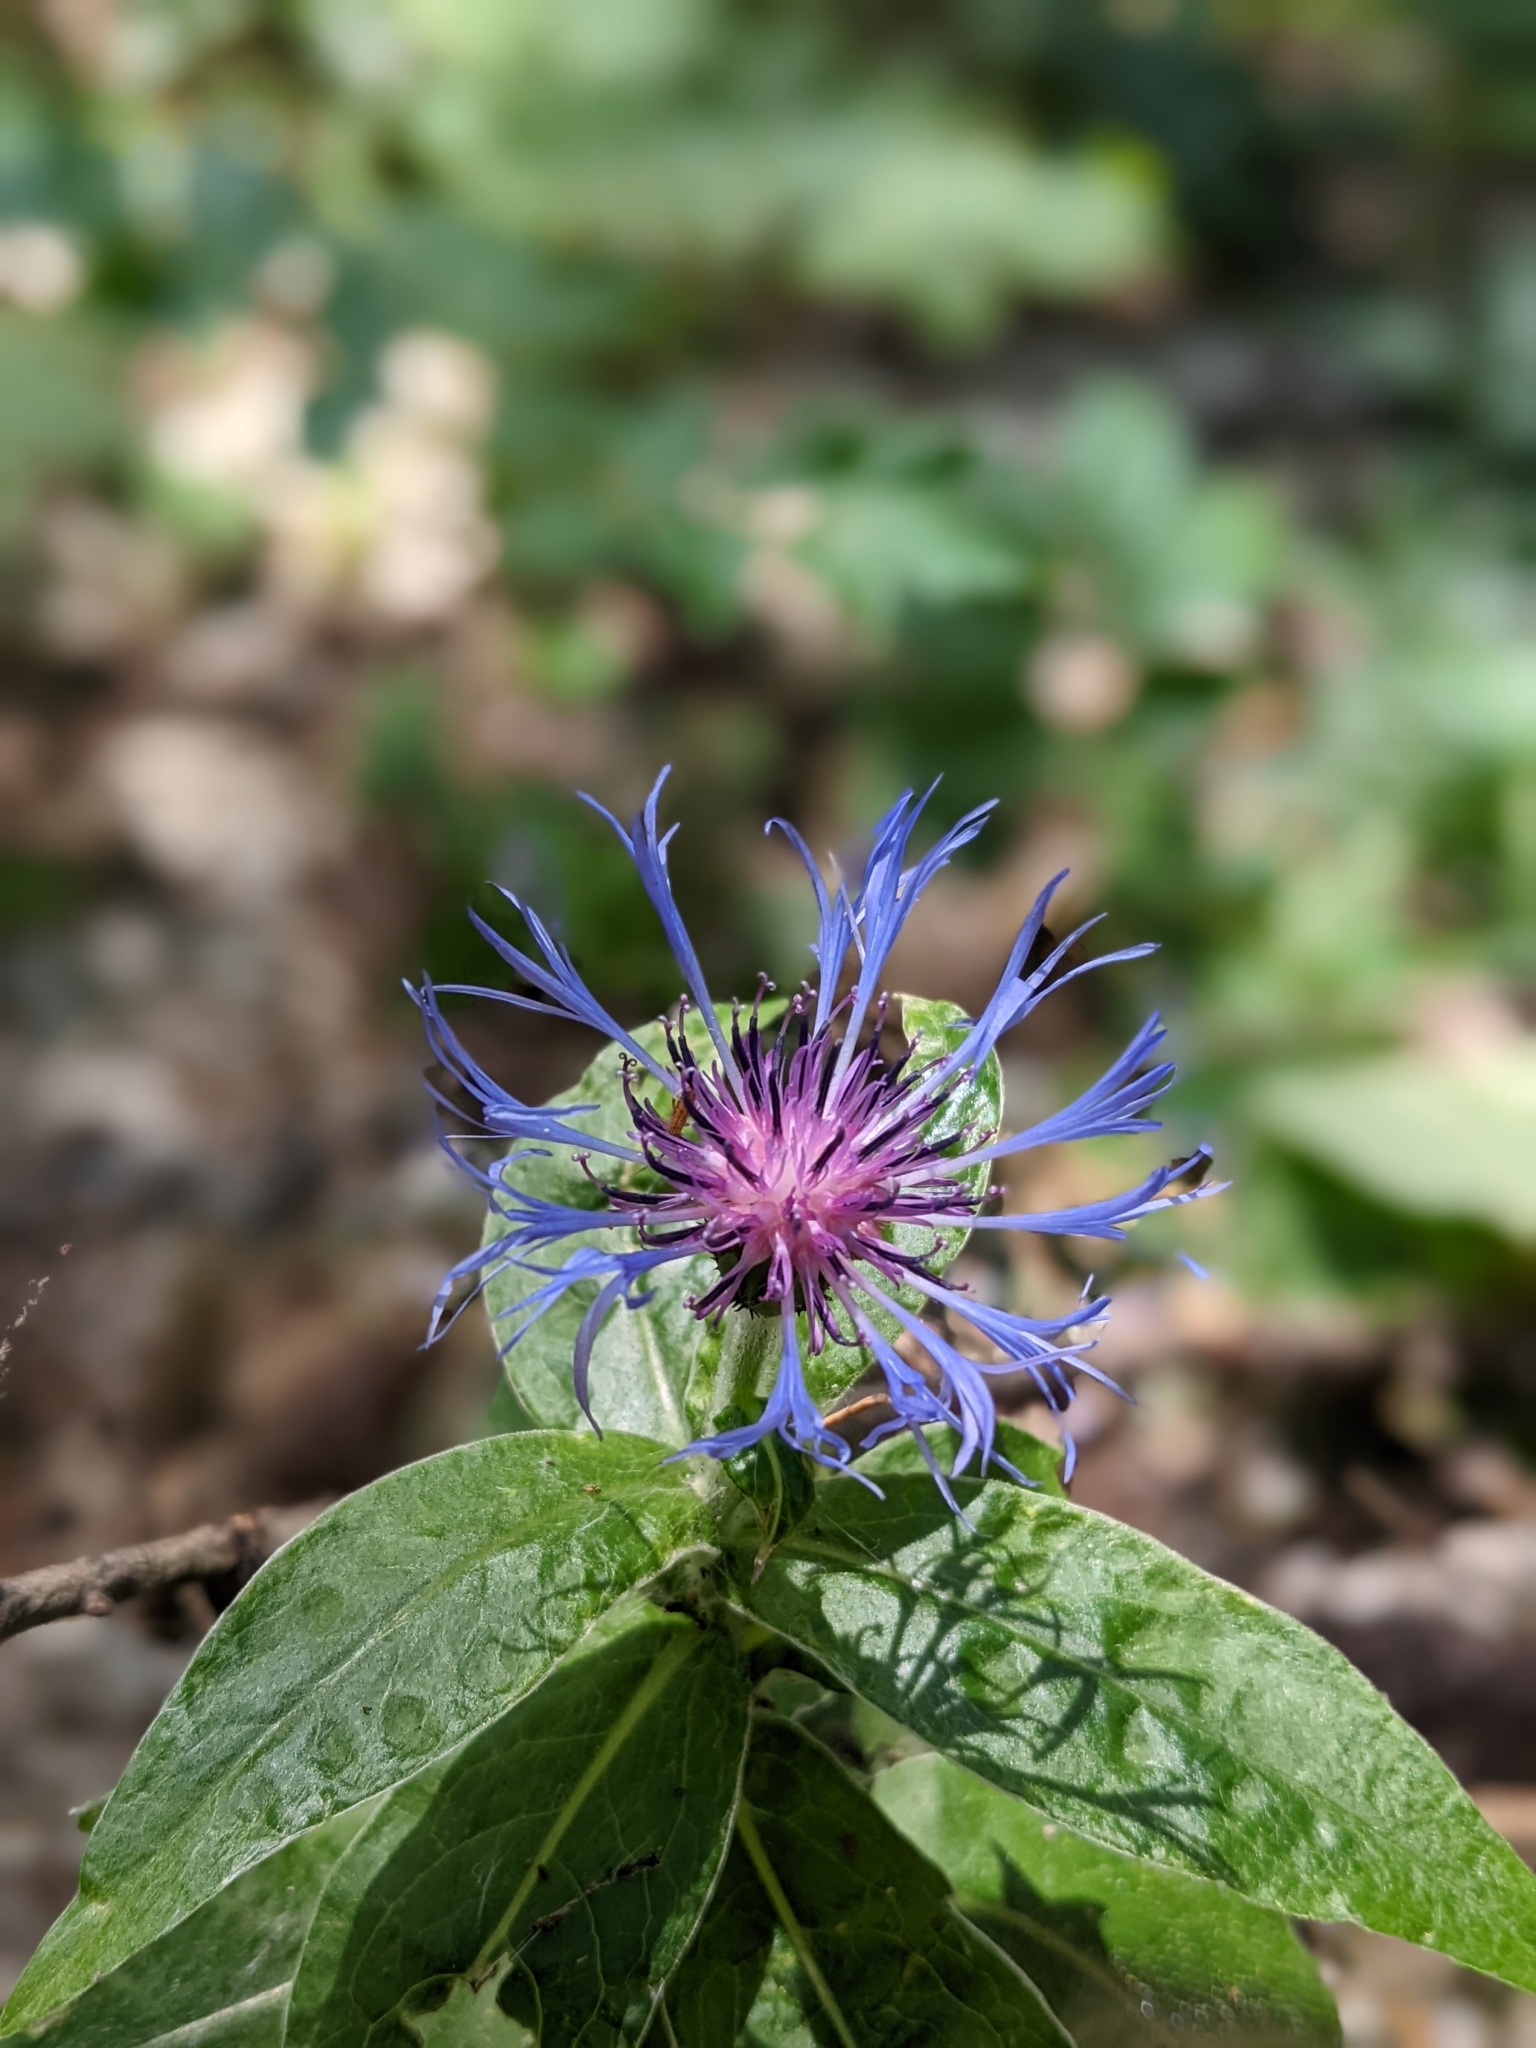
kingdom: Plantae
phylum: Tracheophyta
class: Magnoliopsida
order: Asterales
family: Asteraceae
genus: Centaurea
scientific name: Centaurea montana
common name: Perennial cornflower
